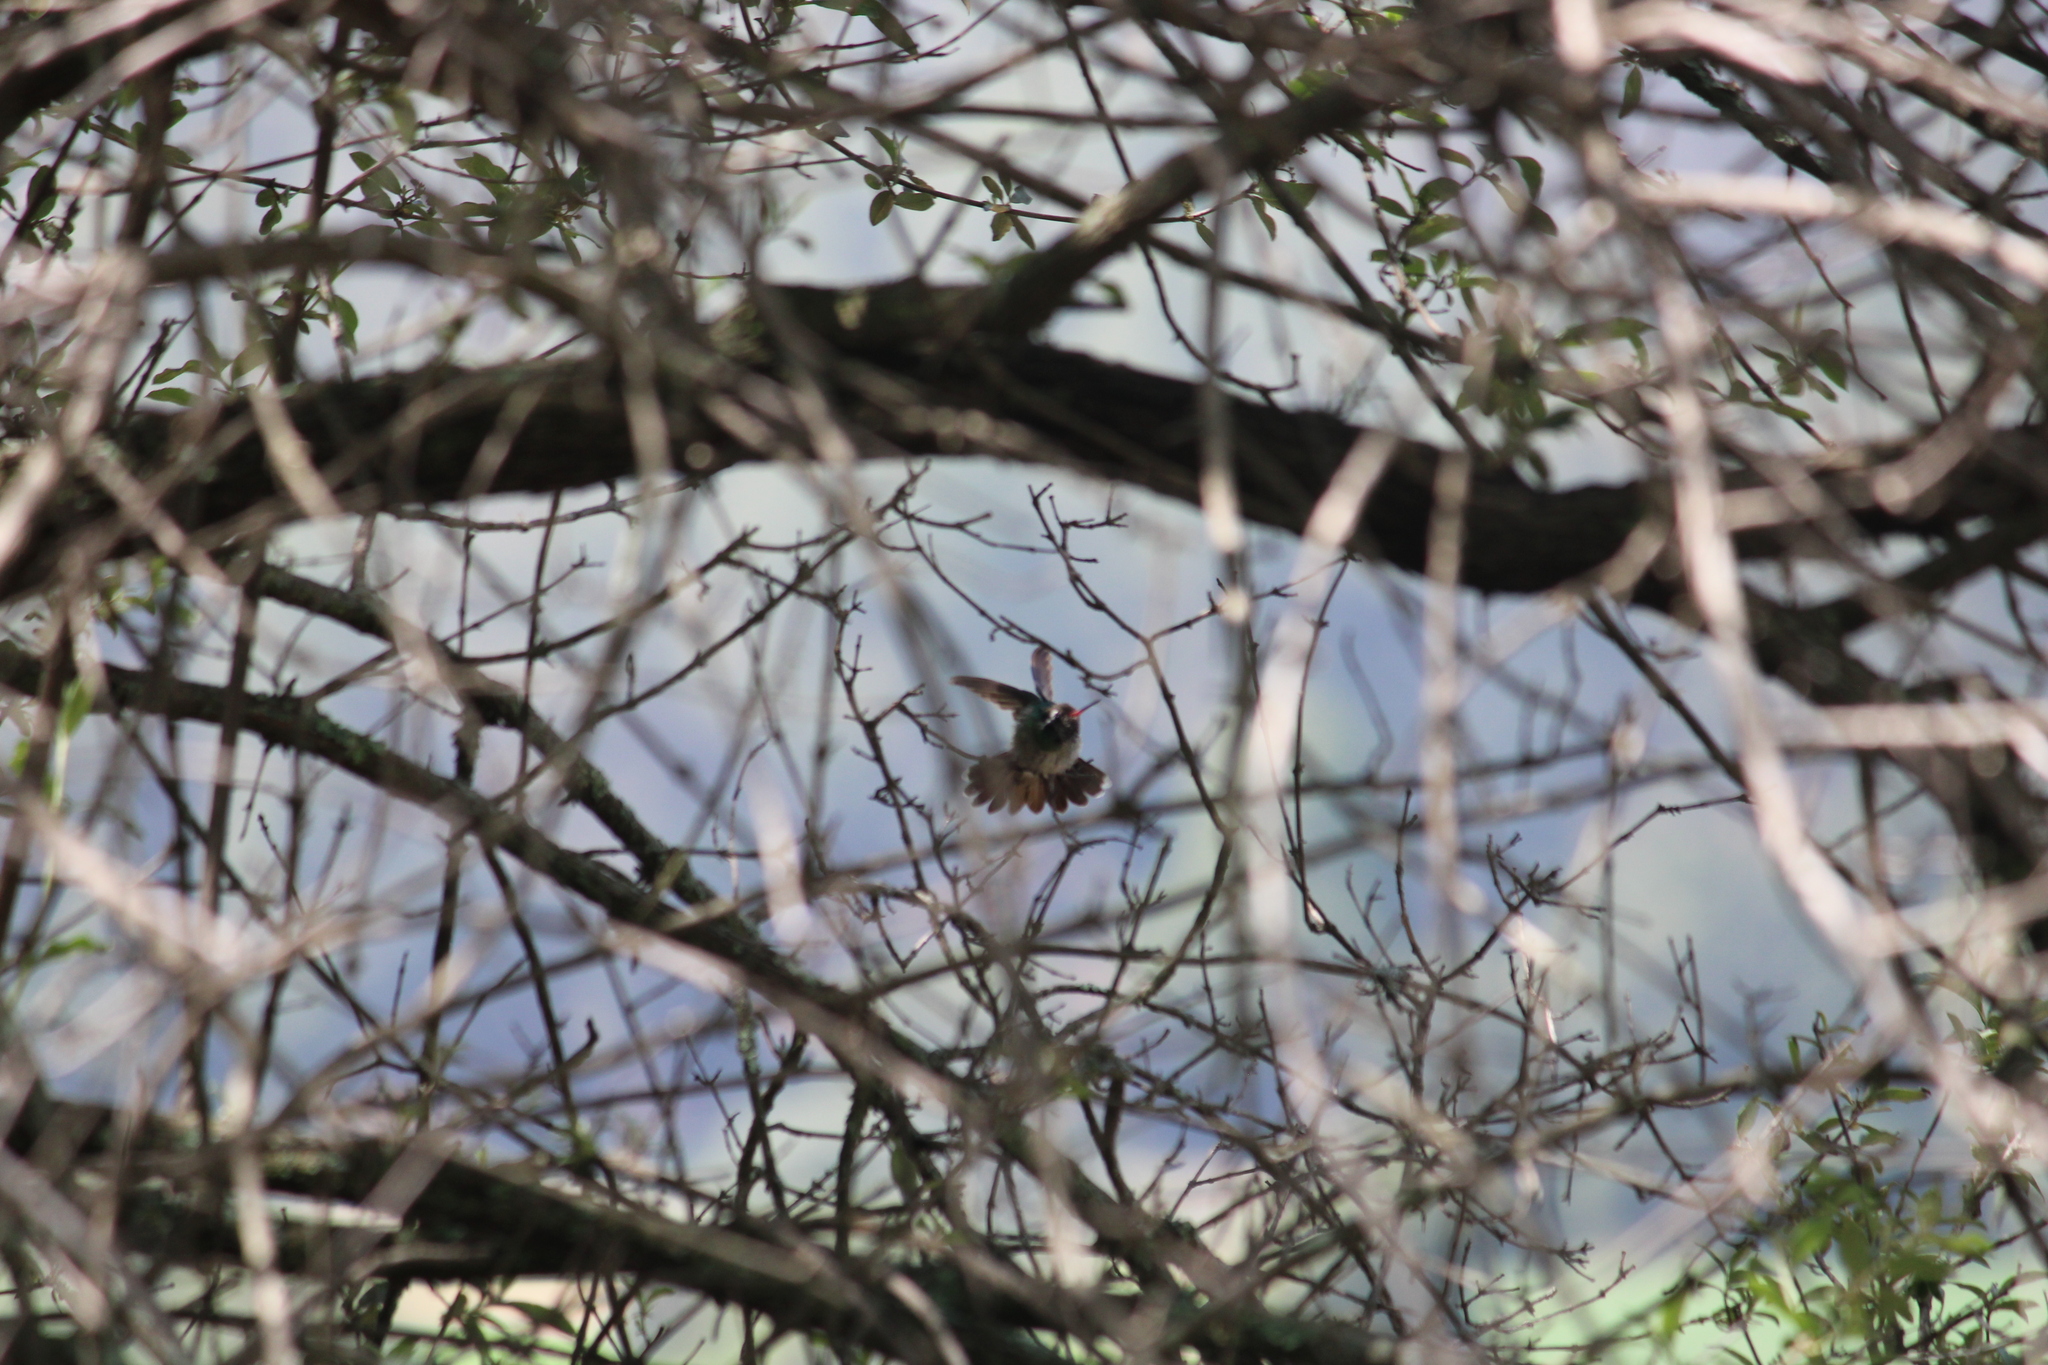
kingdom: Animalia
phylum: Chordata
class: Aves
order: Apodiformes
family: Trochilidae
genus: Basilinna
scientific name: Basilinna leucotis
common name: White-eared hummingbird
